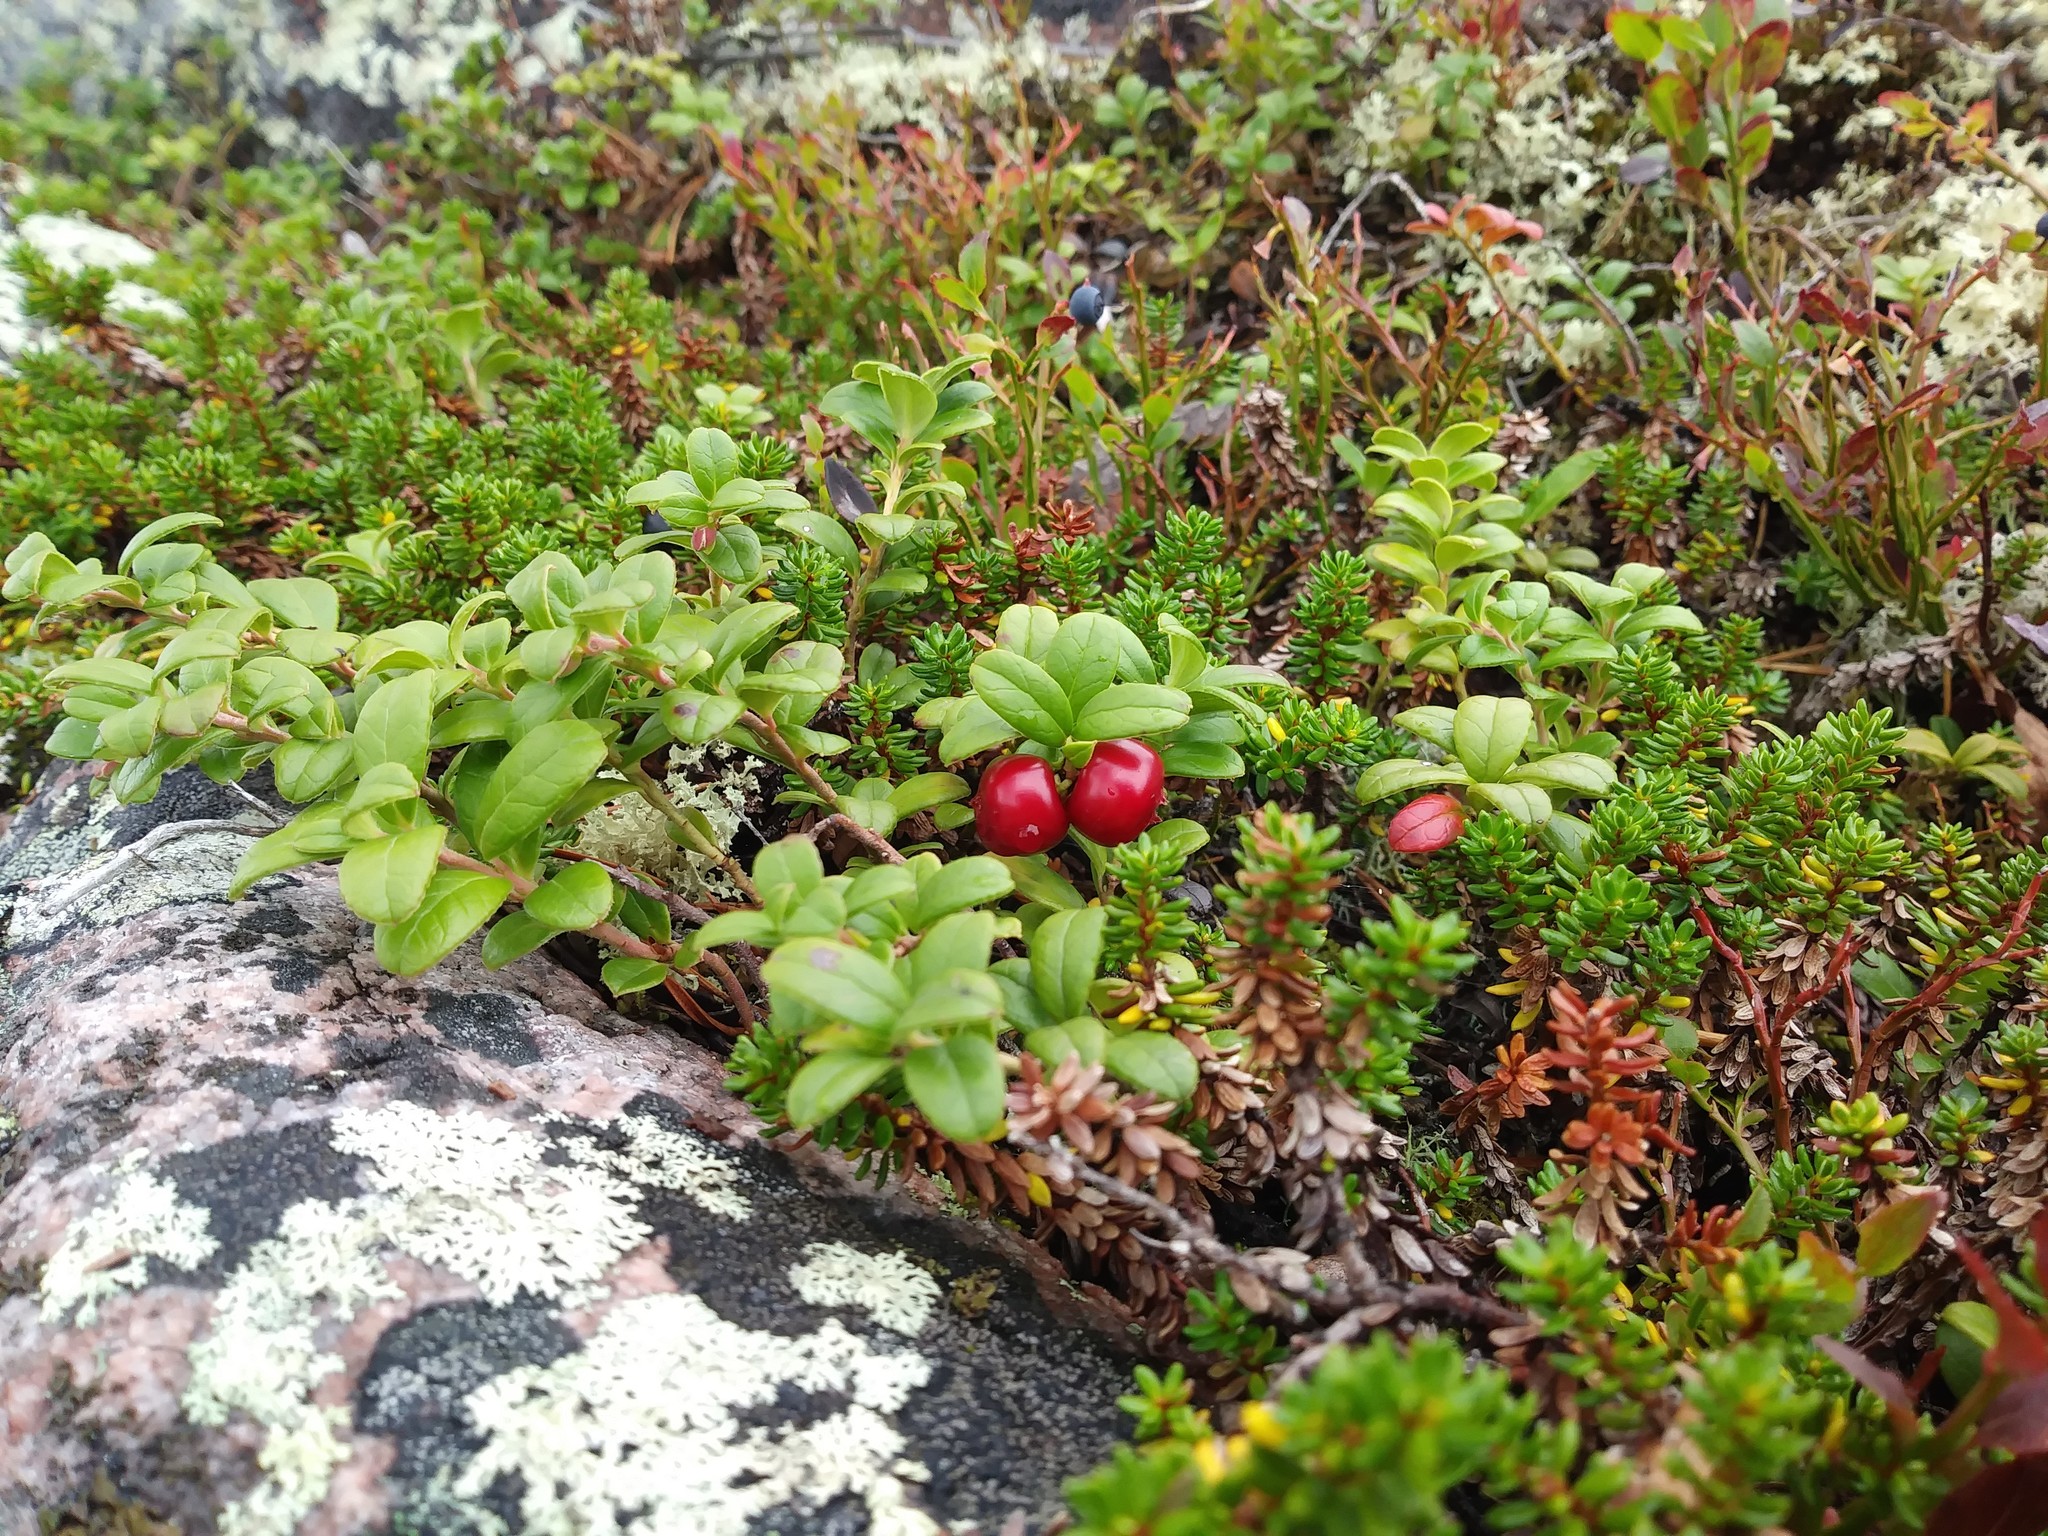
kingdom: Plantae
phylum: Tracheophyta
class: Magnoliopsida
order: Ericales
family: Ericaceae
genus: Vaccinium
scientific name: Vaccinium vitis-idaea
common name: Cowberry
